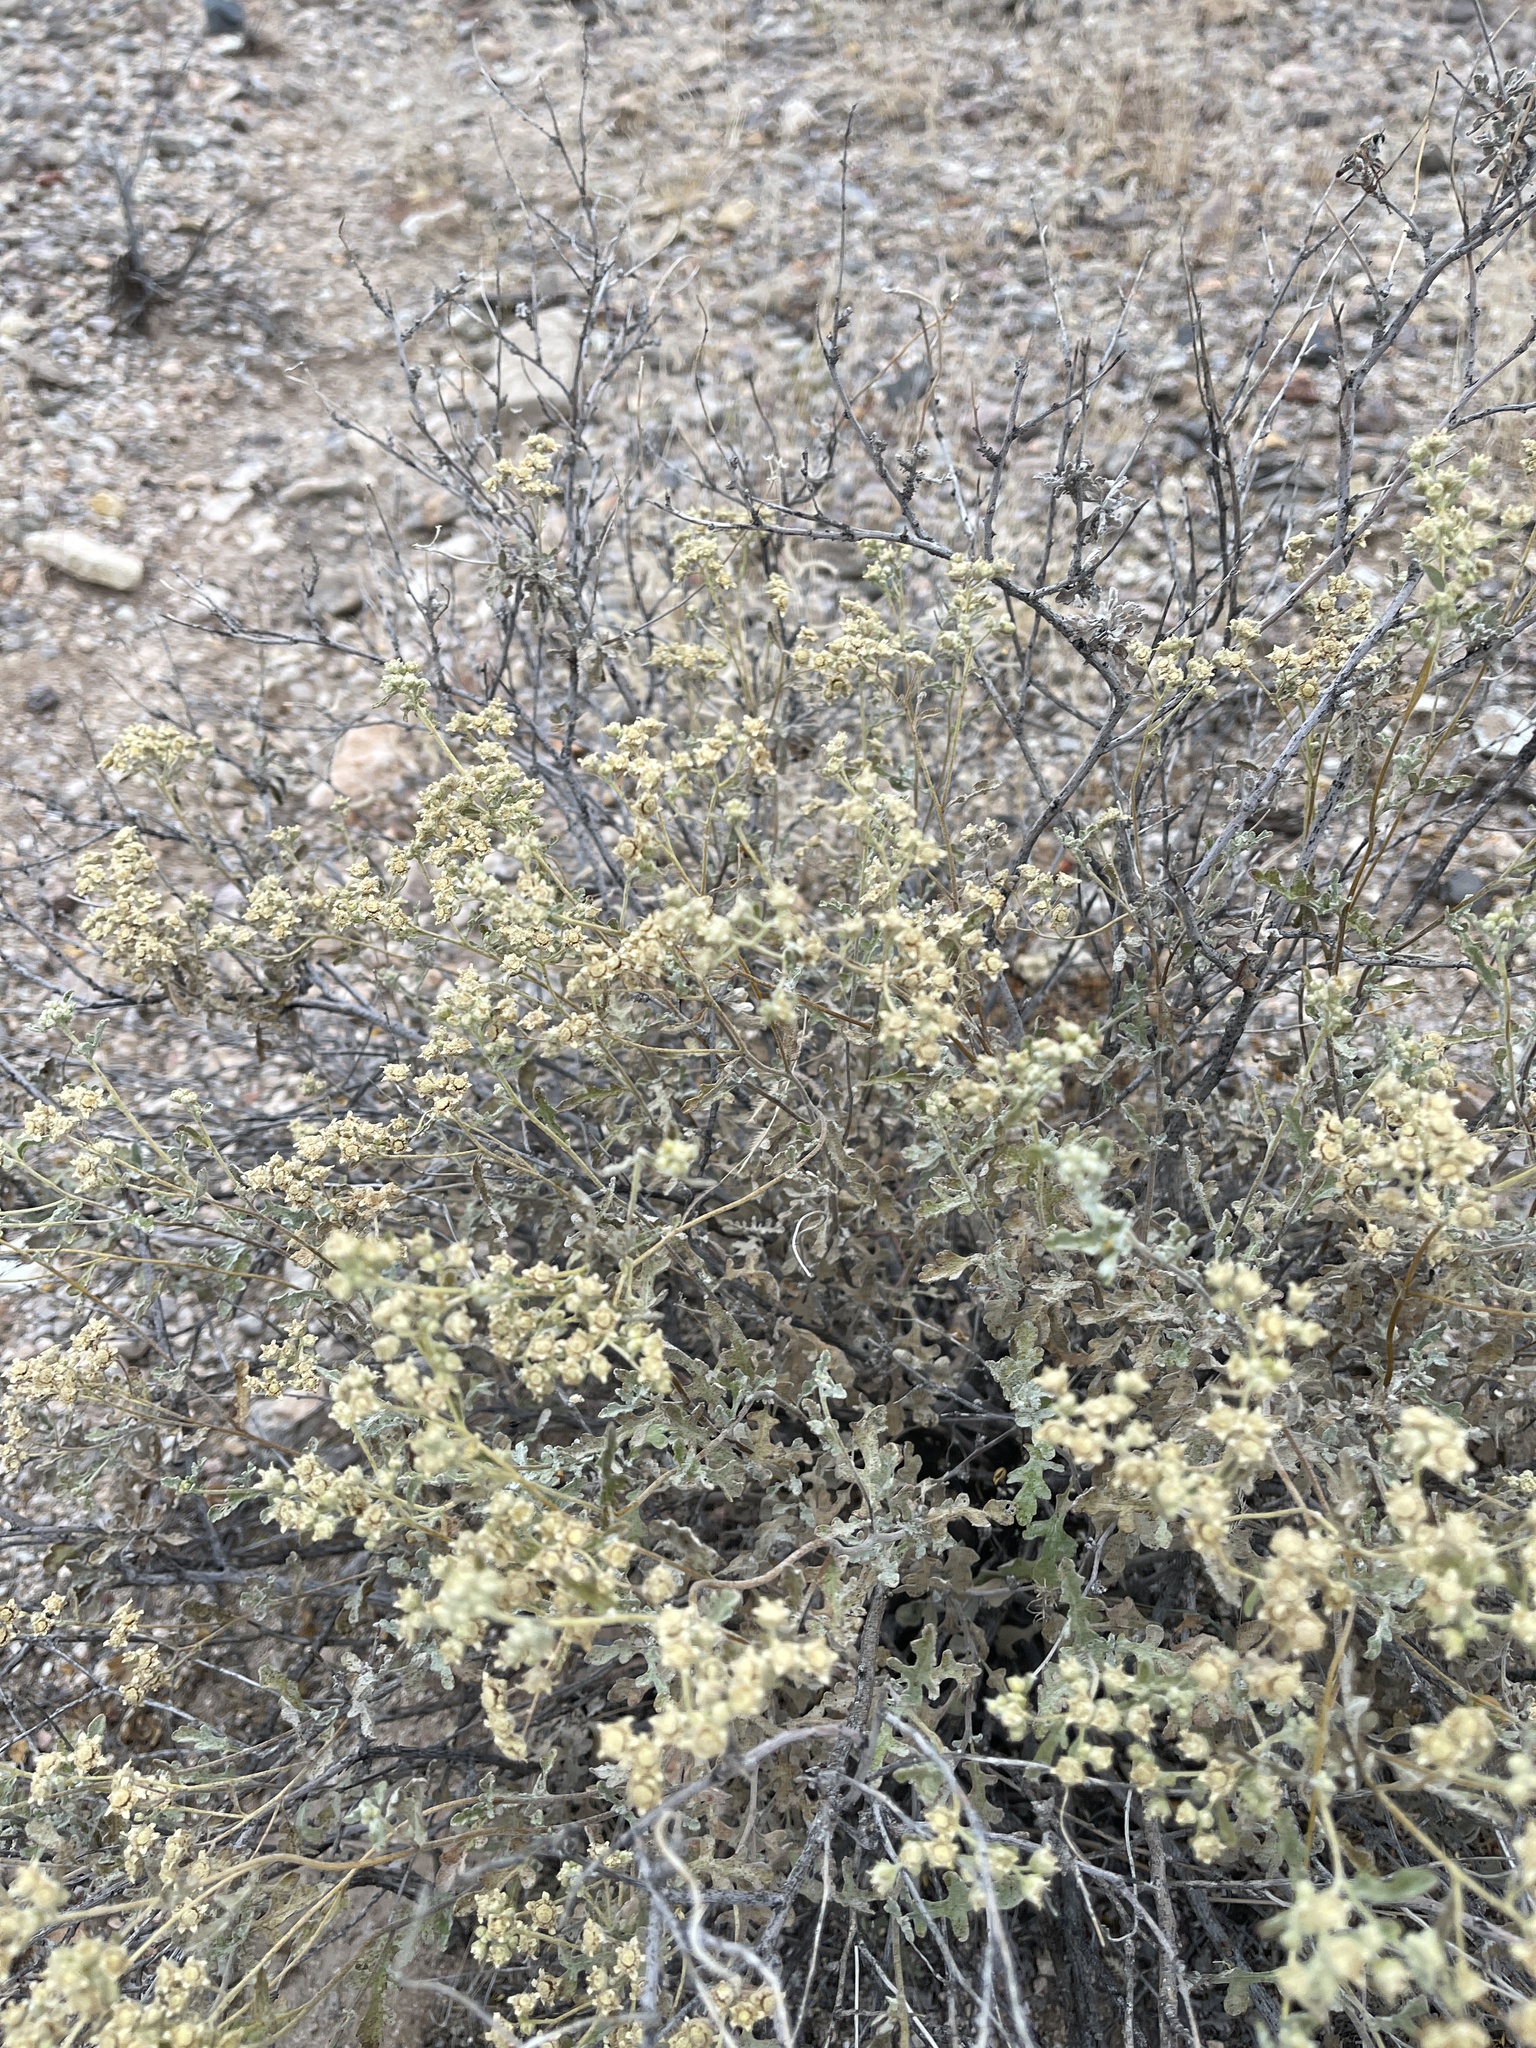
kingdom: Plantae
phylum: Tracheophyta
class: Magnoliopsida
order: Asterales
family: Asteraceae
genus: Parthenium
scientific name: Parthenium incanum
